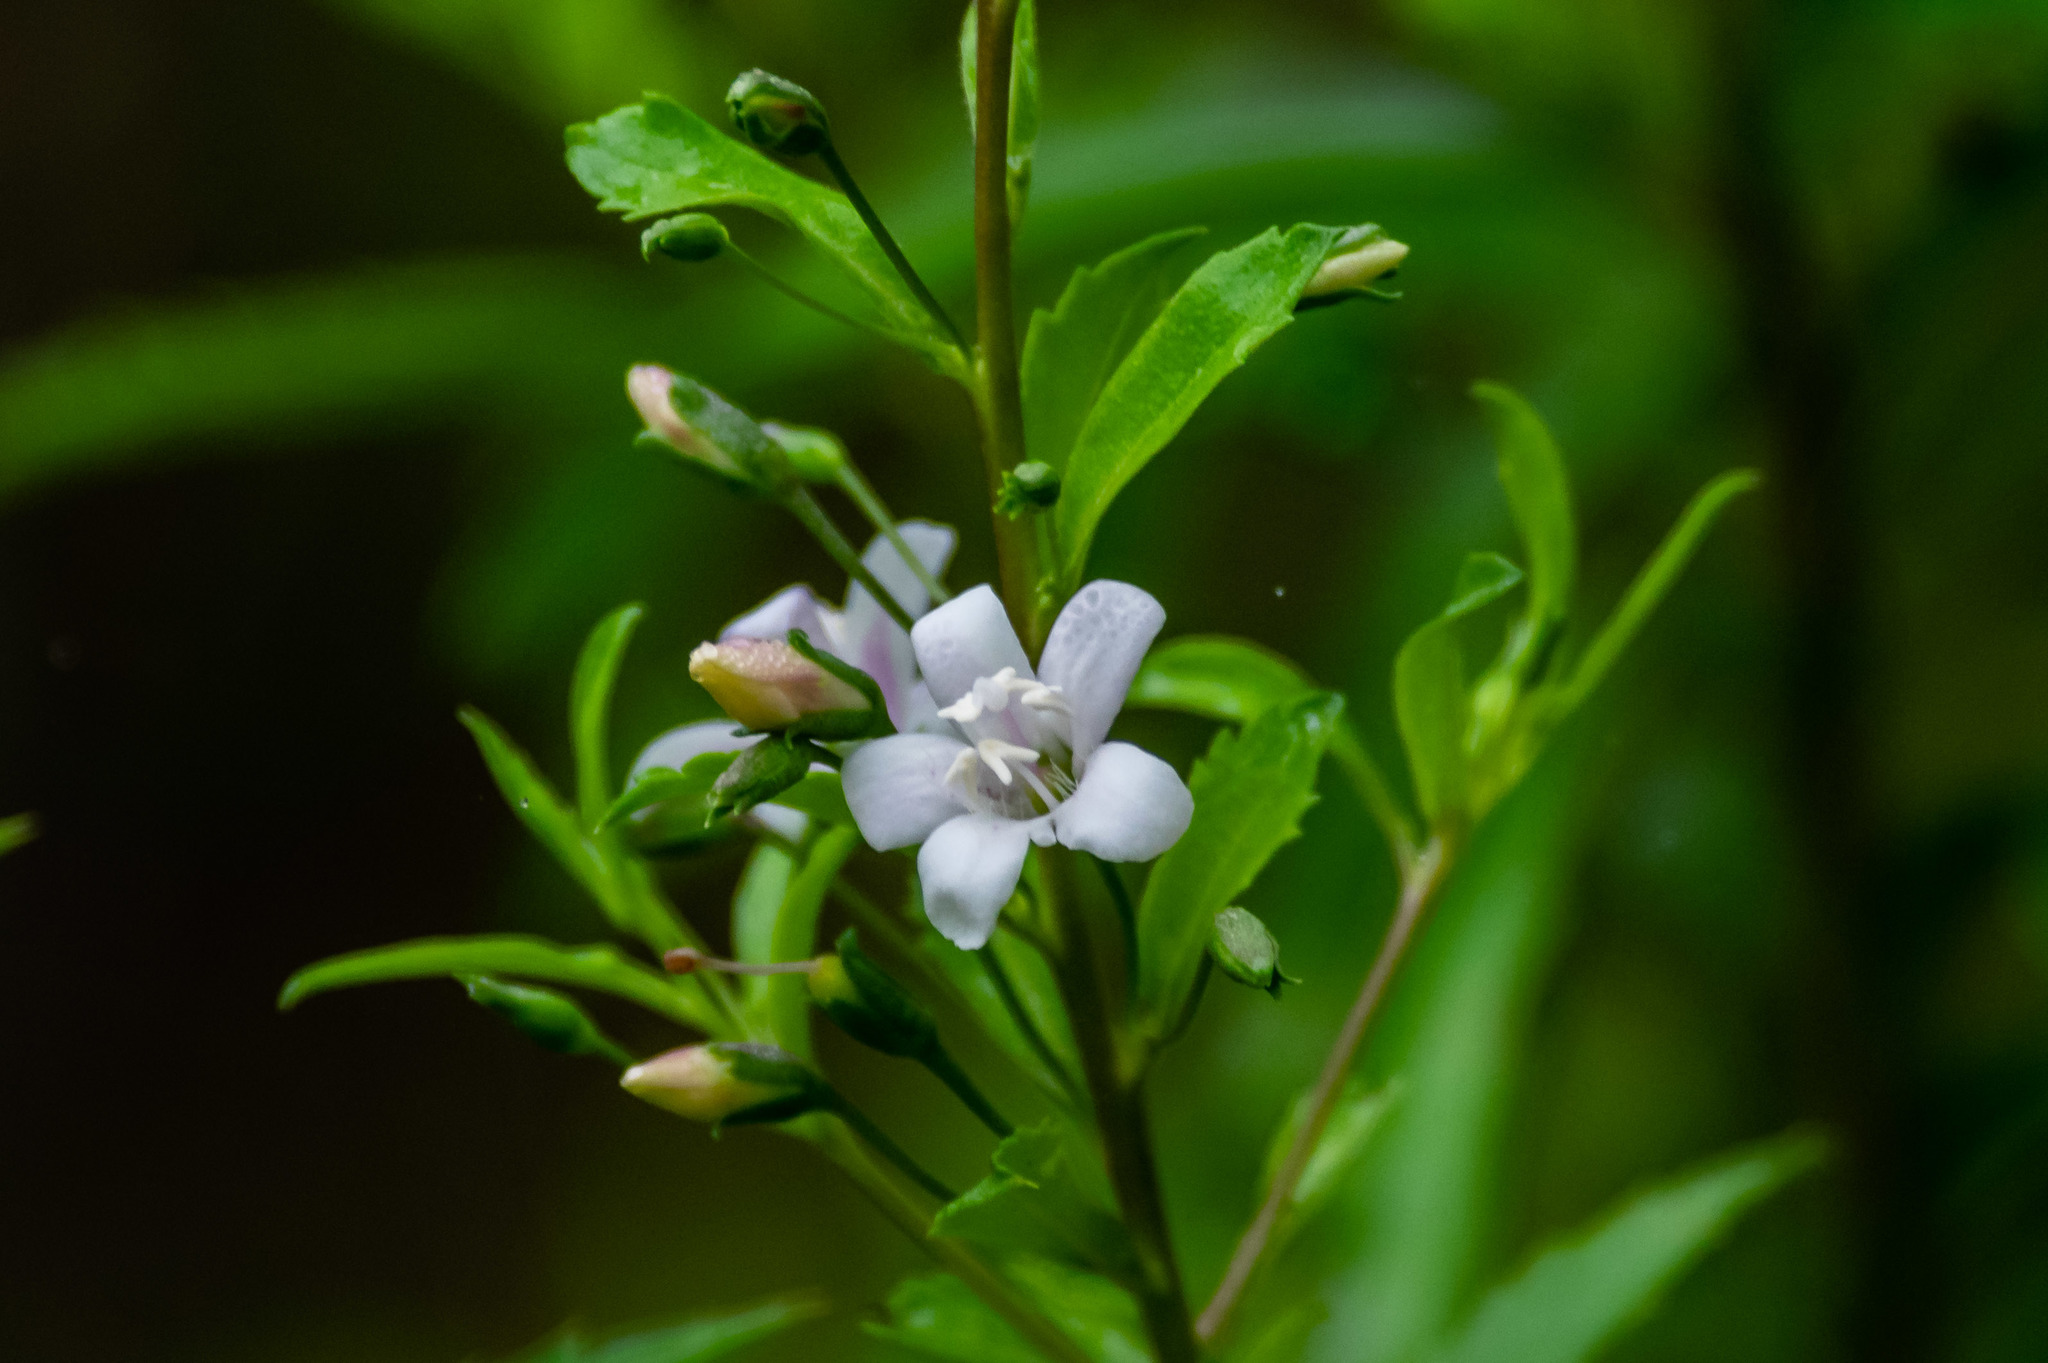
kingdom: Plantae
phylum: Tracheophyta
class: Magnoliopsida
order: Lamiales
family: Scrophulariaceae
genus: Capraria
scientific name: Capraria biflora
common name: Goatweed
